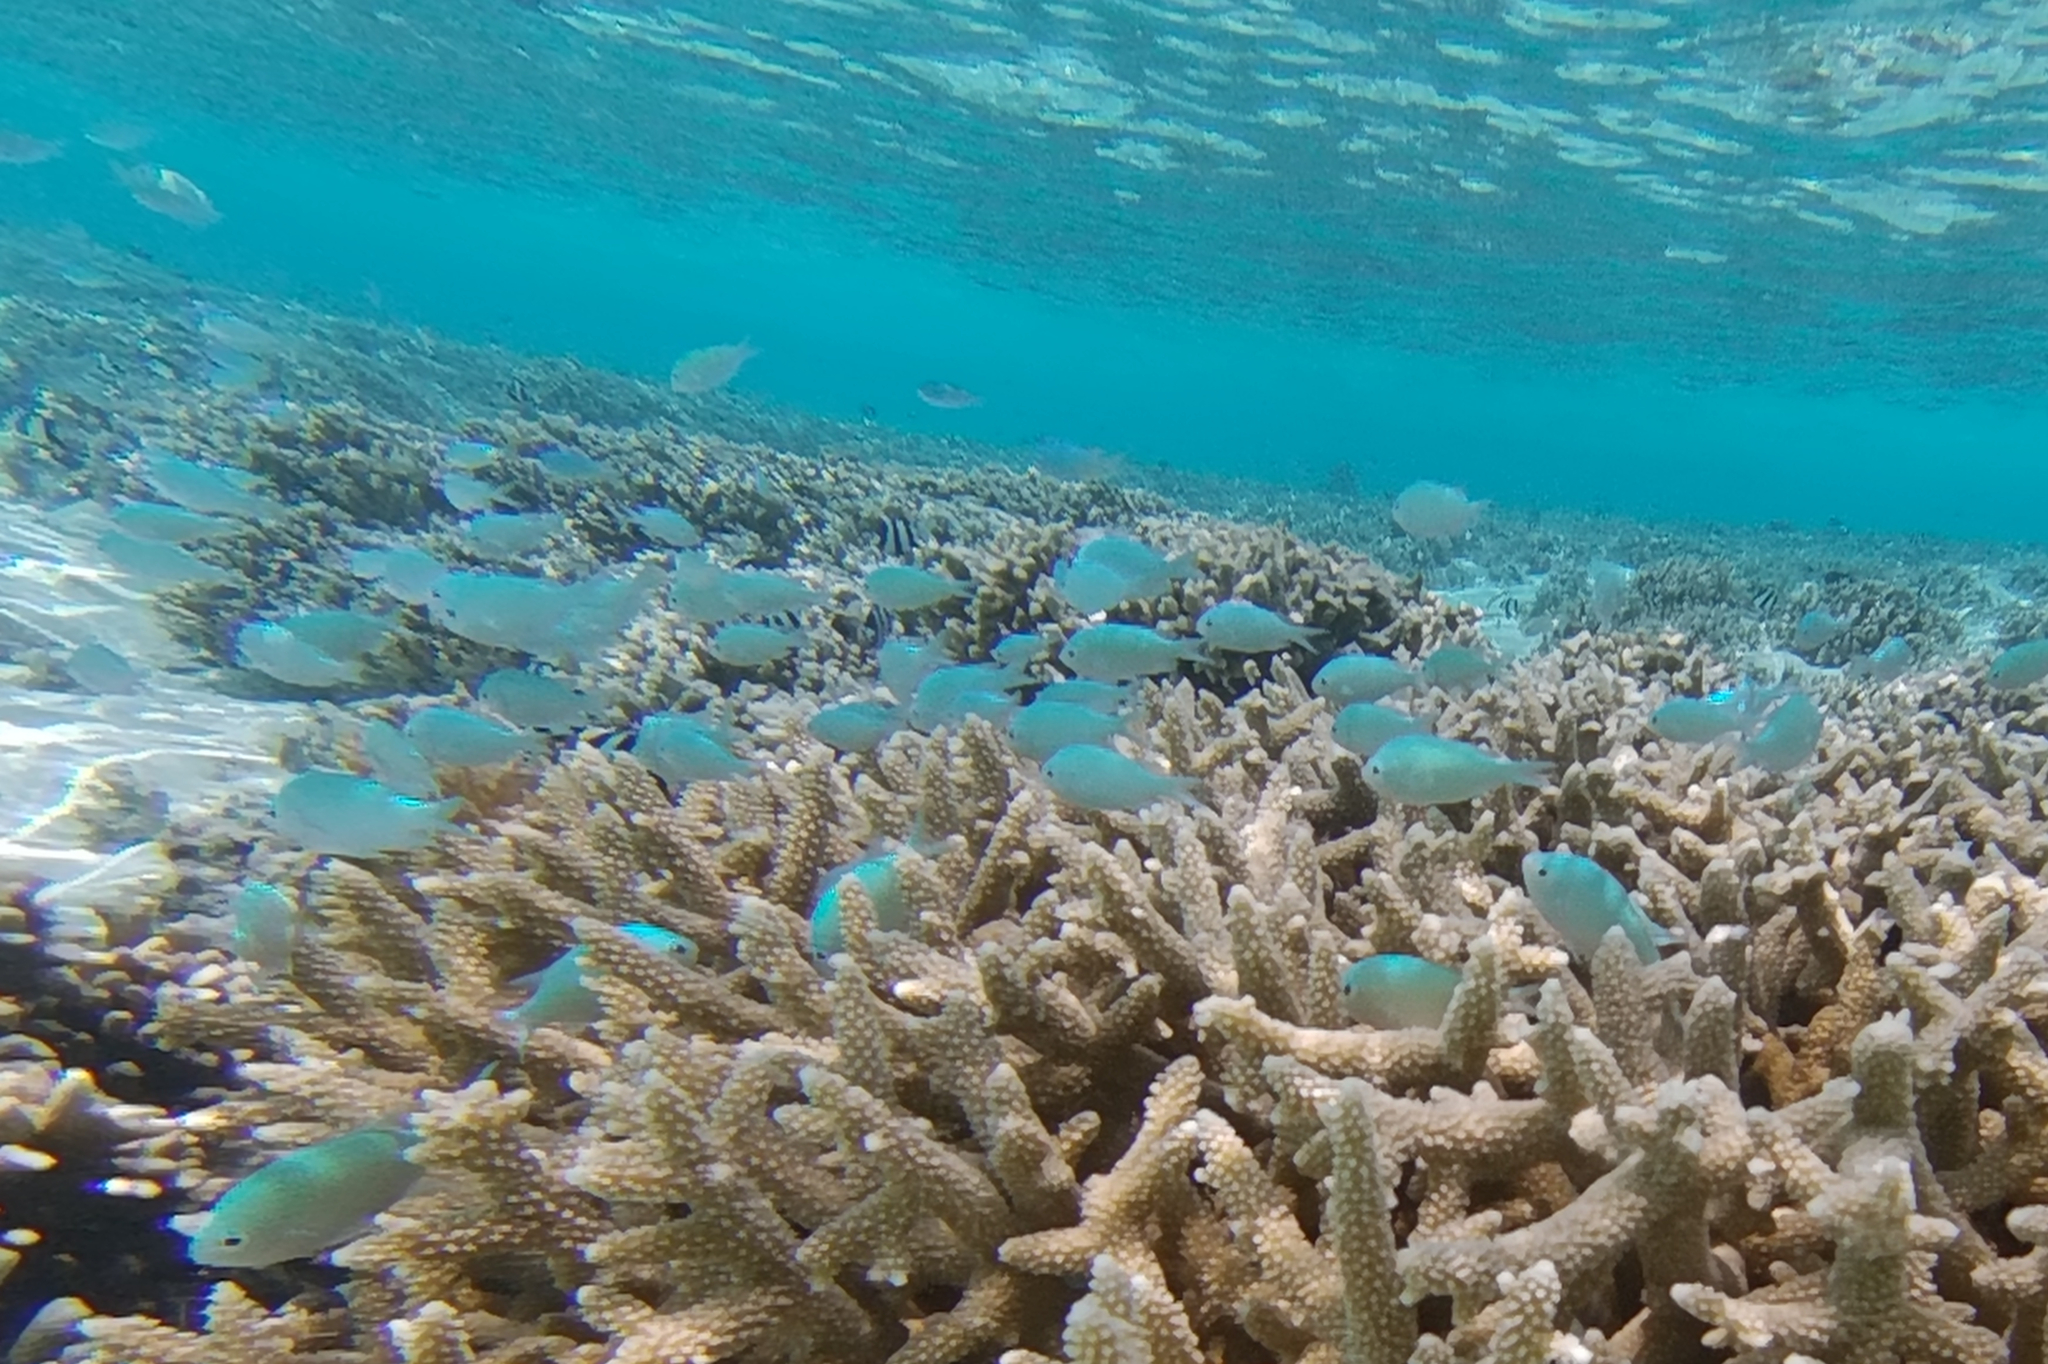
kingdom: Animalia
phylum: Chordata
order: Perciformes
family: Pomacentridae
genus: Chromis
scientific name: Chromis viridis
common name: Blue-green chromis
